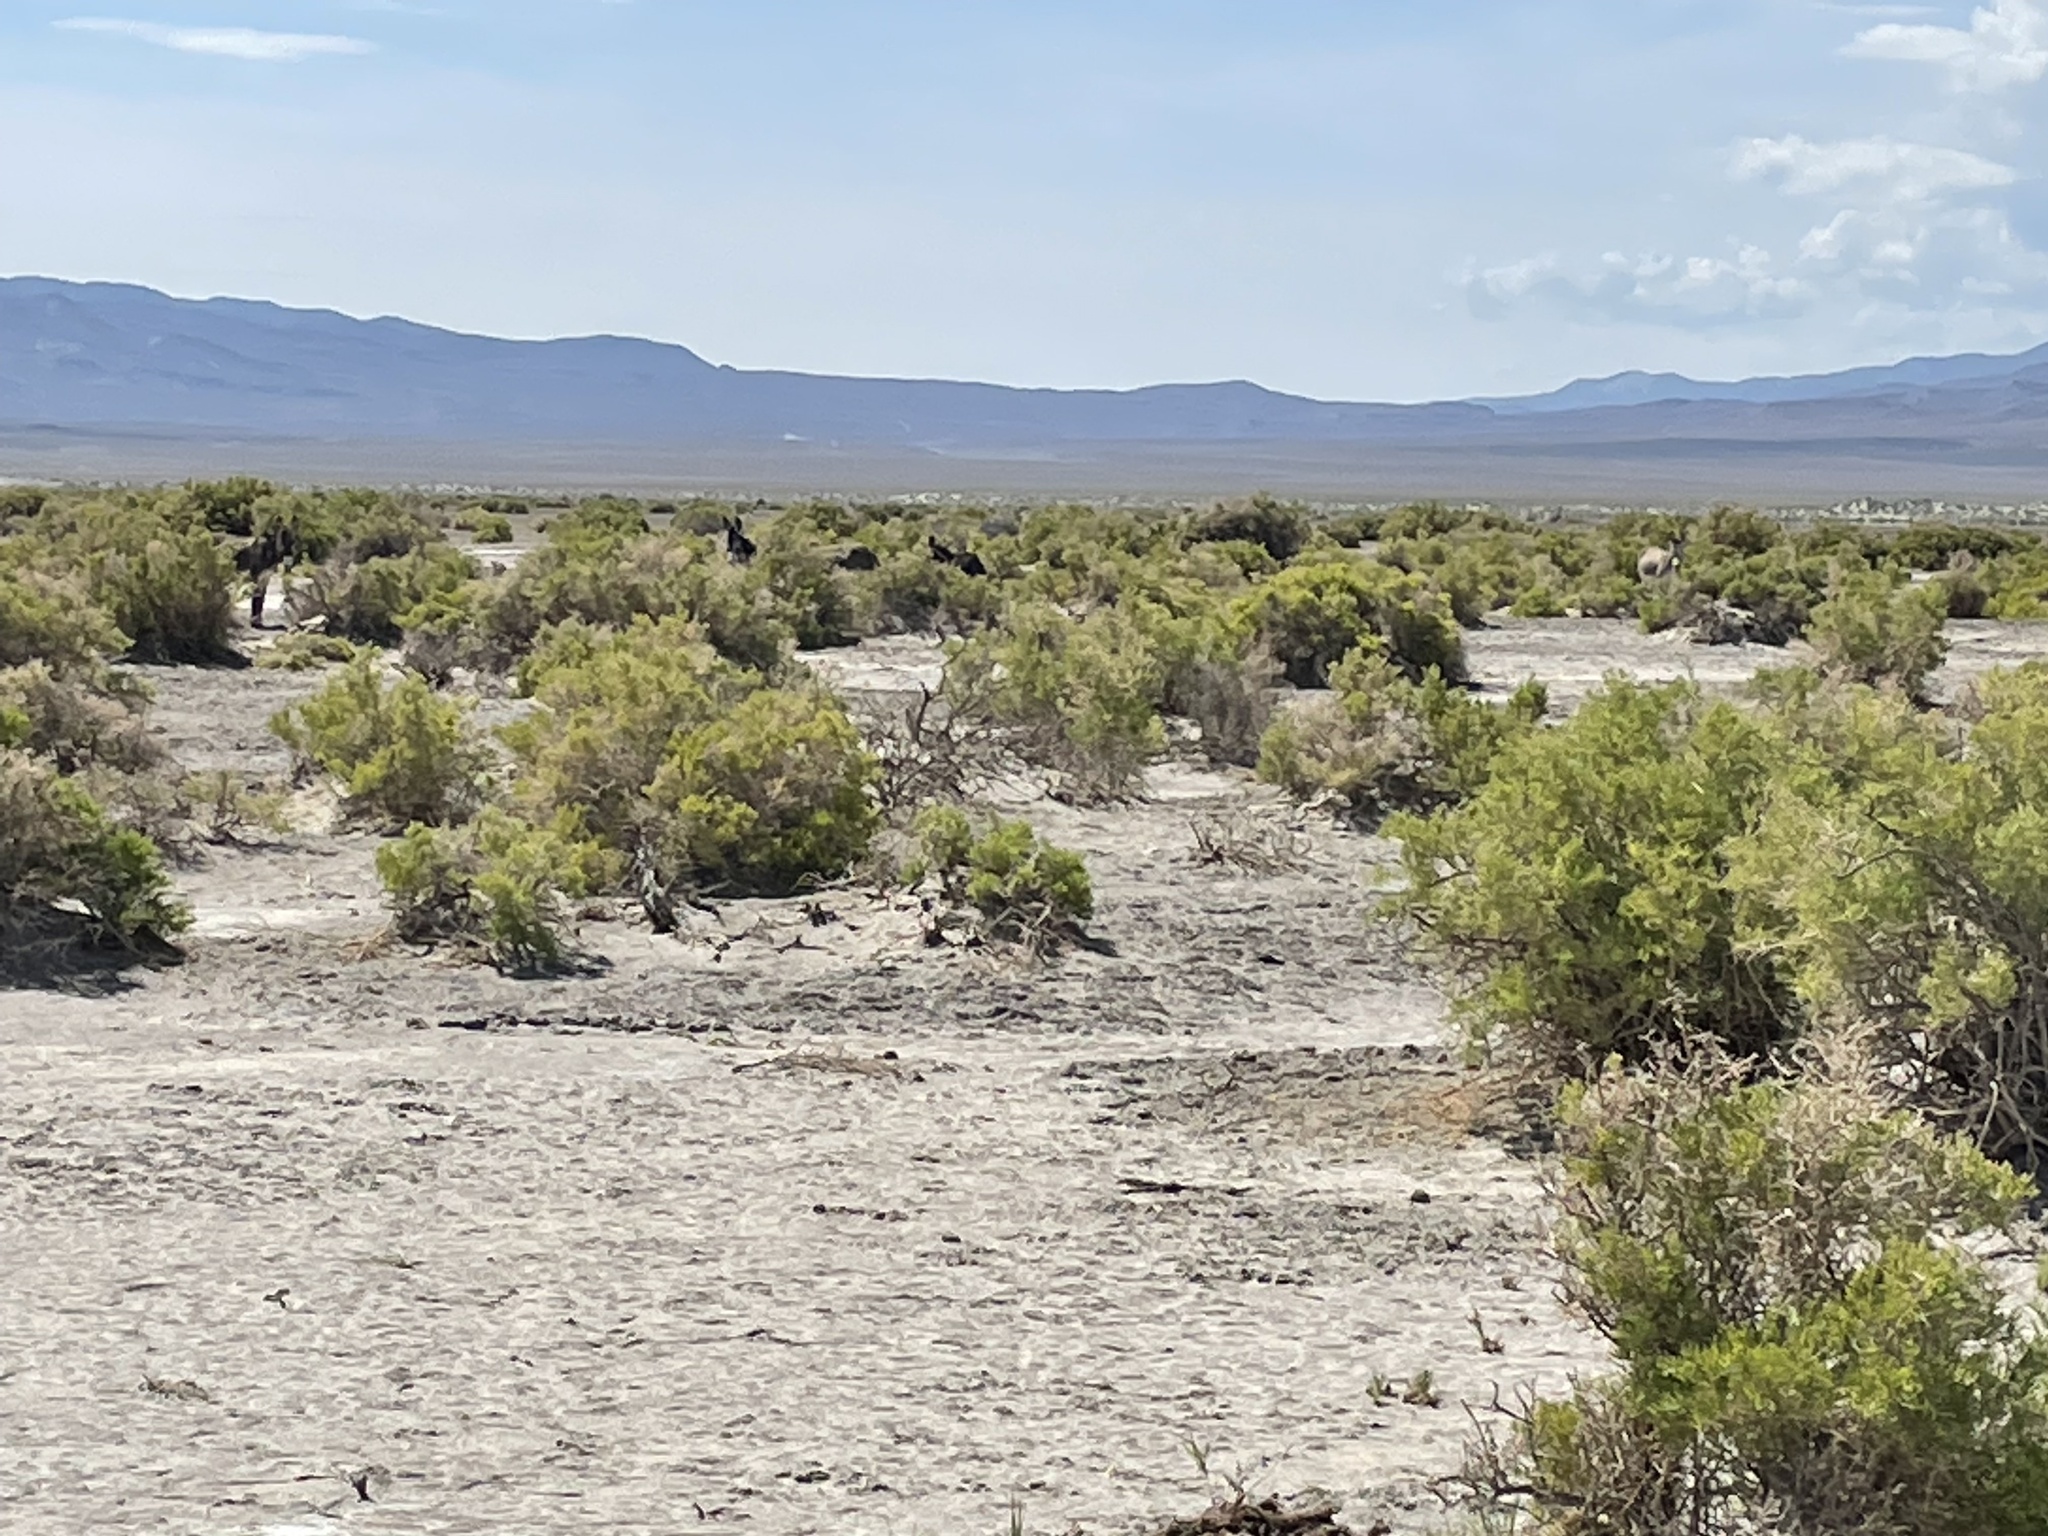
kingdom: Animalia
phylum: Chordata
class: Mammalia
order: Perissodactyla
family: Equidae
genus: Equus
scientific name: Equus asinus
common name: Ass
